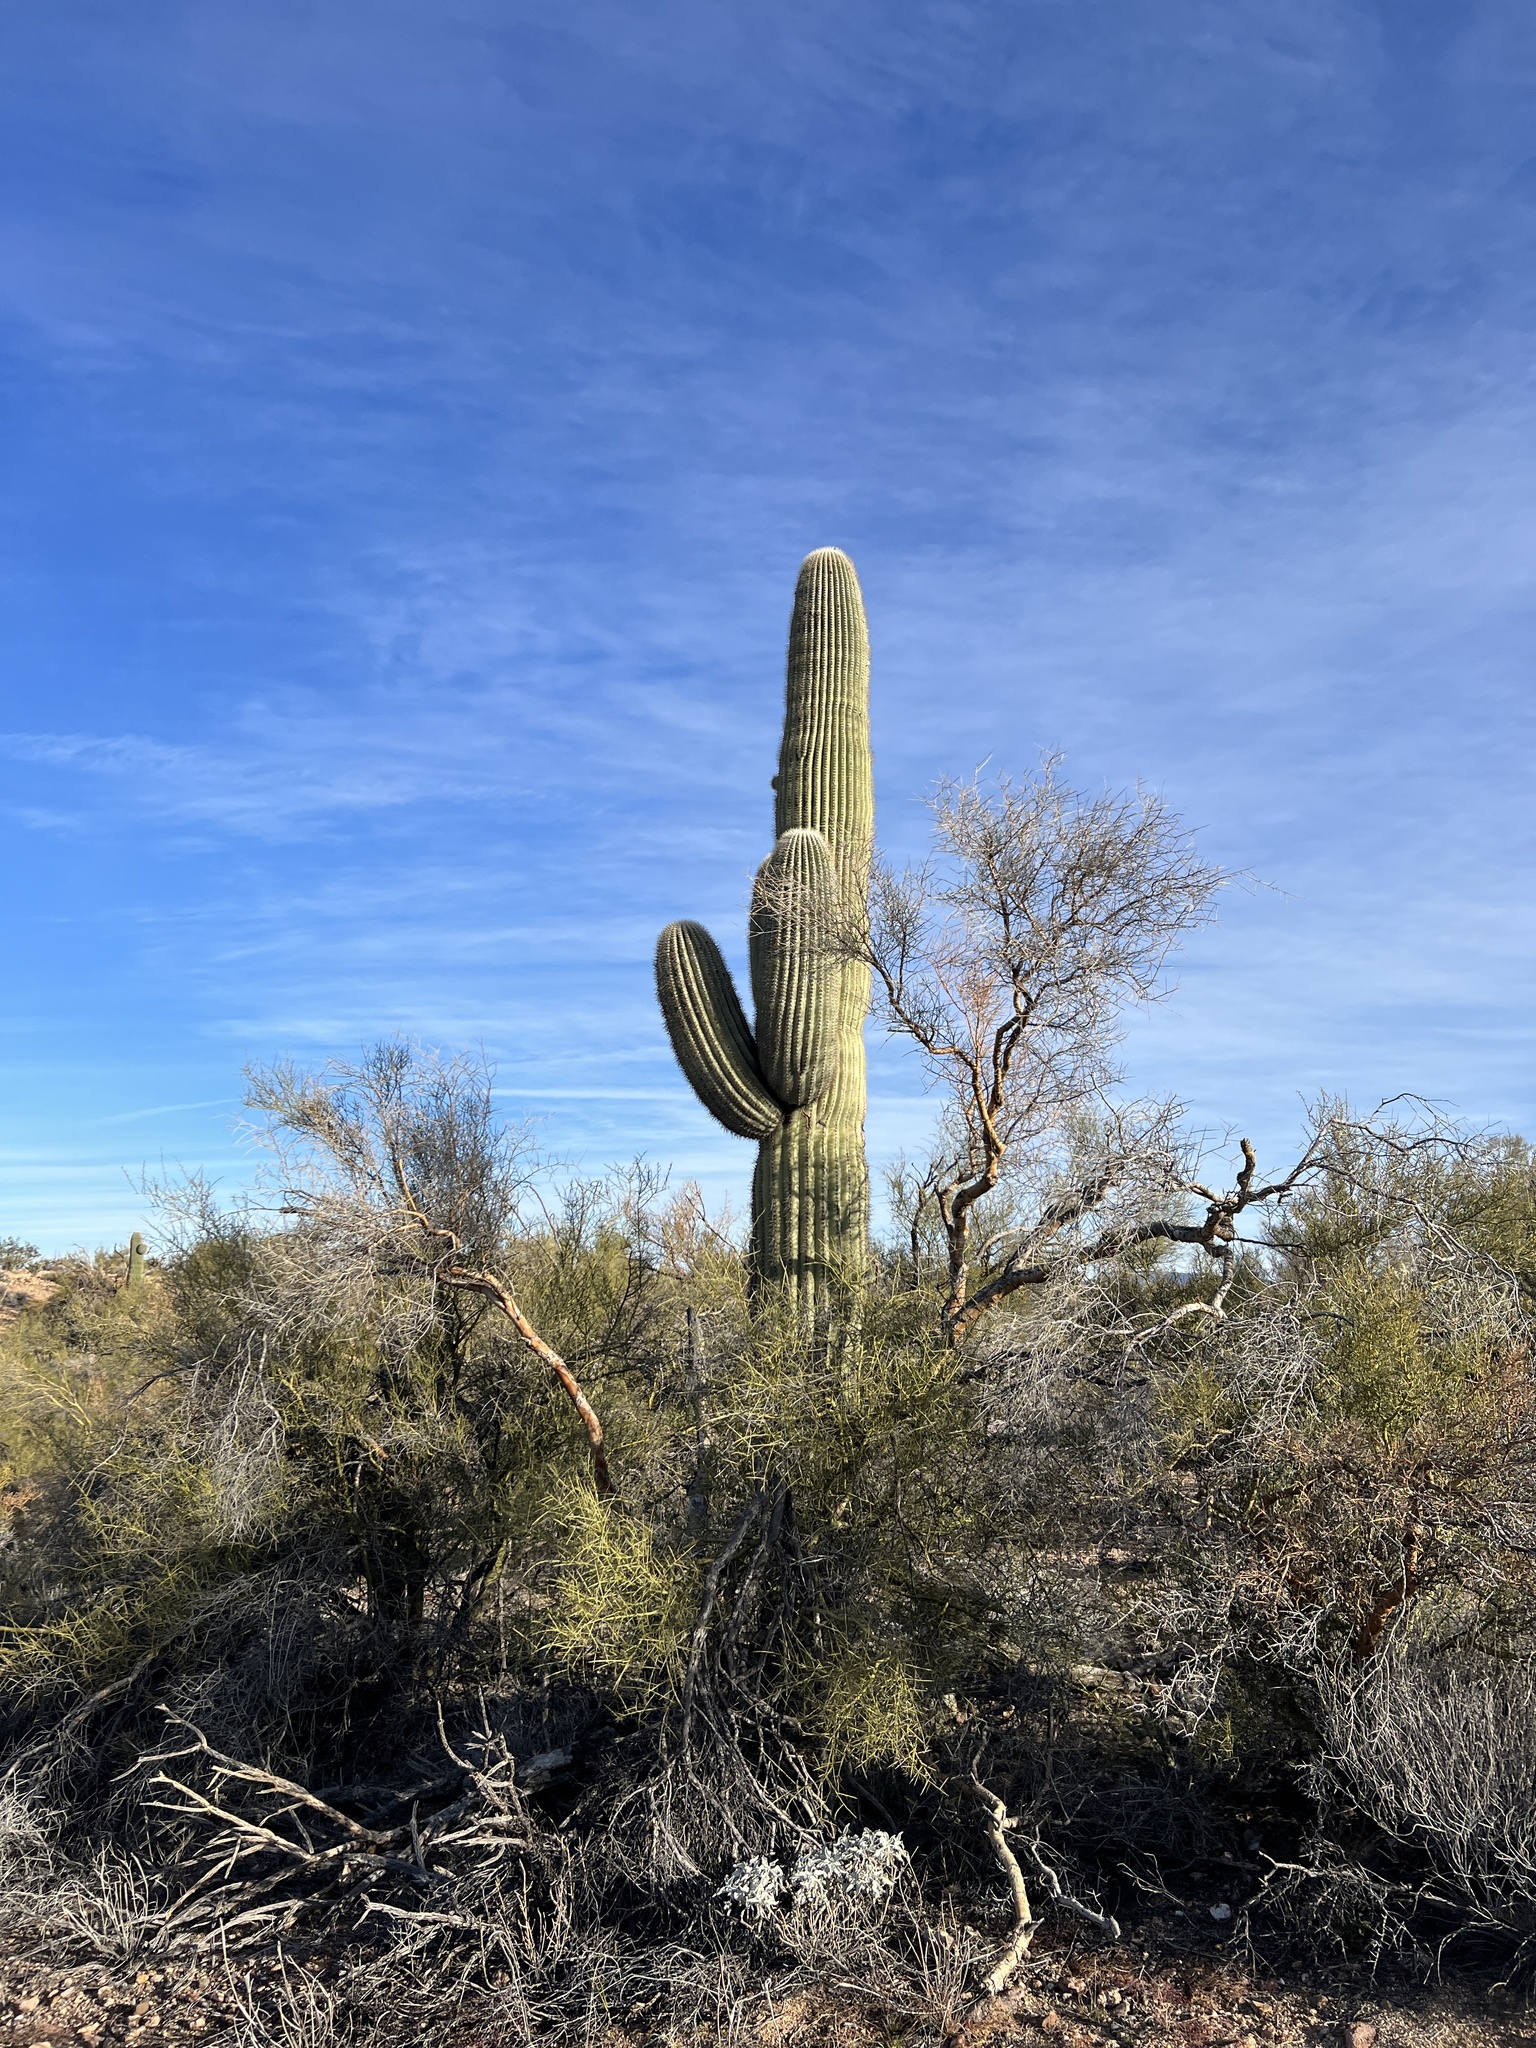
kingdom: Plantae
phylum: Tracheophyta
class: Magnoliopsida
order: Caryophyllales
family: Cactaceae
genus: Carnegiea
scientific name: Carnegiea gigantea
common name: Saguaro
